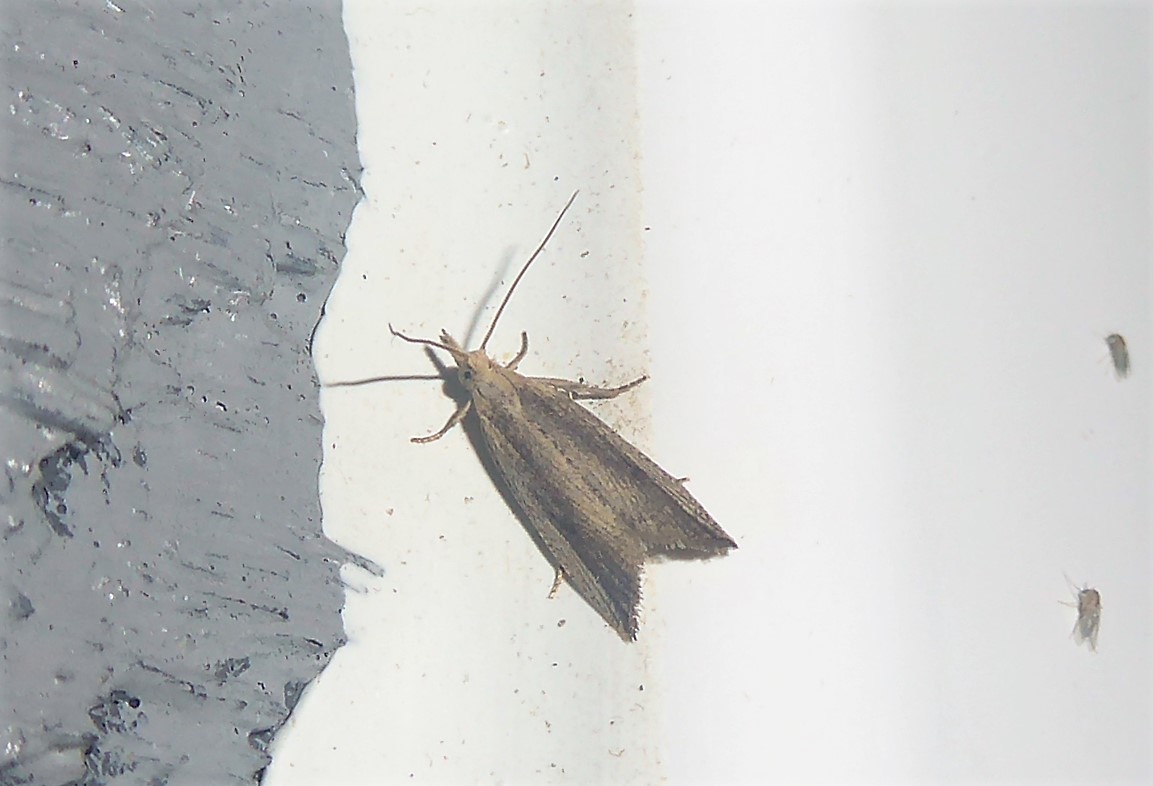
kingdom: Animalia
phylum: Arthropoda
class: Insecta
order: Lepidoptera
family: Tortricidae
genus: Bactra
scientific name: Bactra noteraula
